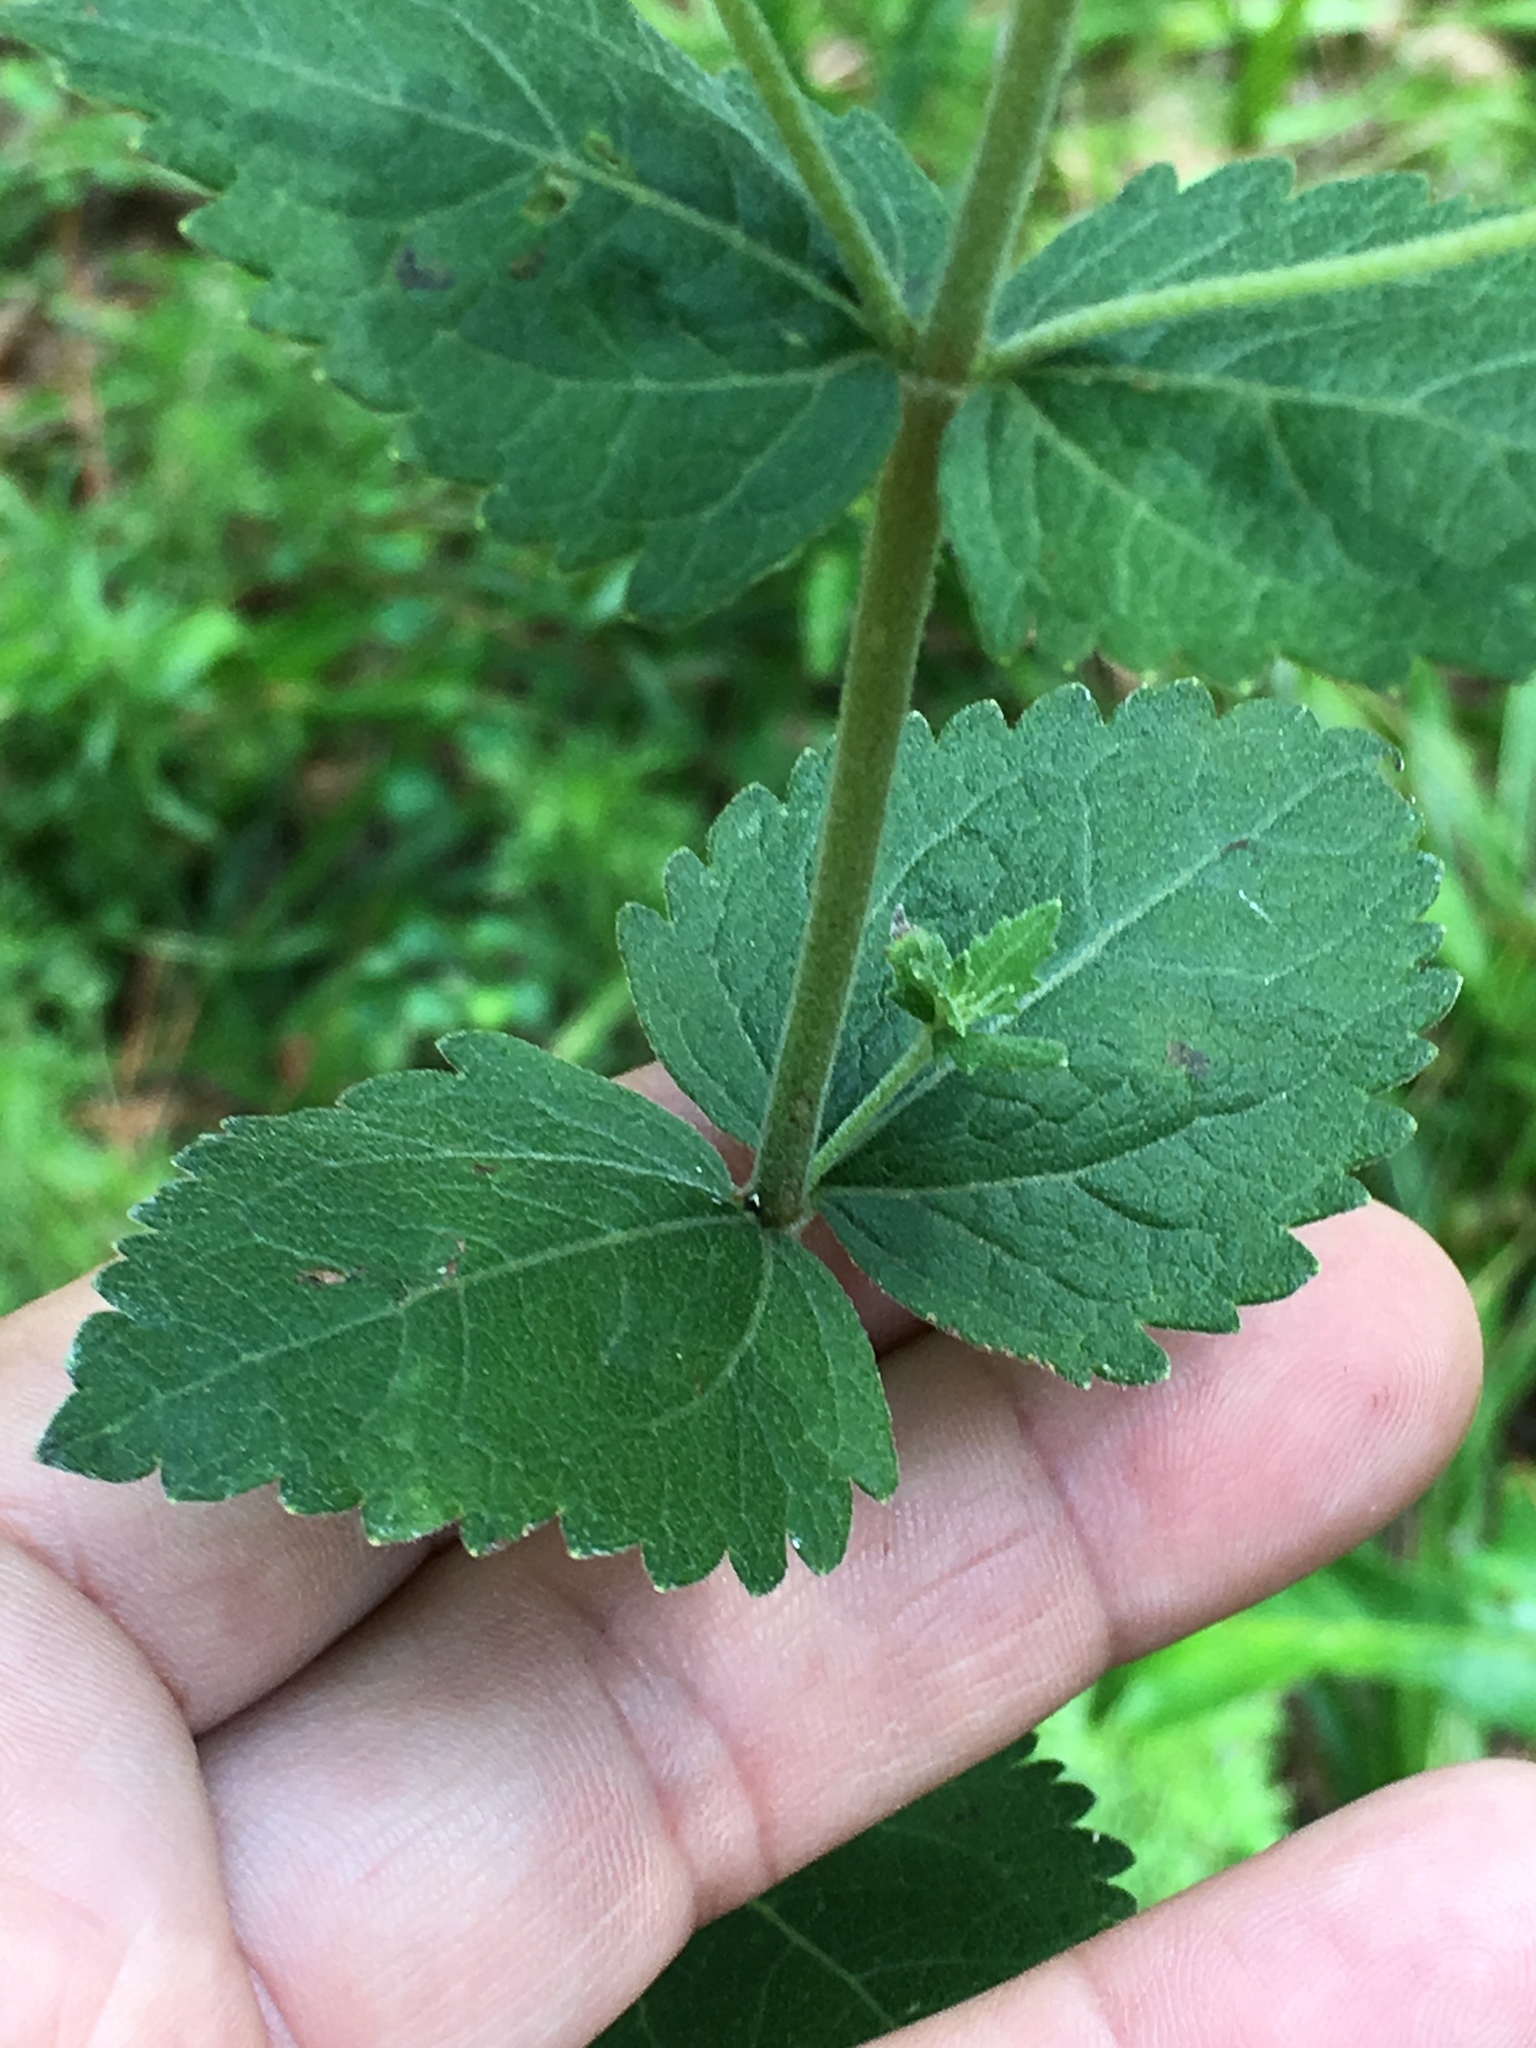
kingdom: Plantae
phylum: Tracheophyta
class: Magnoliopsida
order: Asterales
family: Asteraceae
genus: Eupatorium
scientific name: Eupatorium rotundifolium
